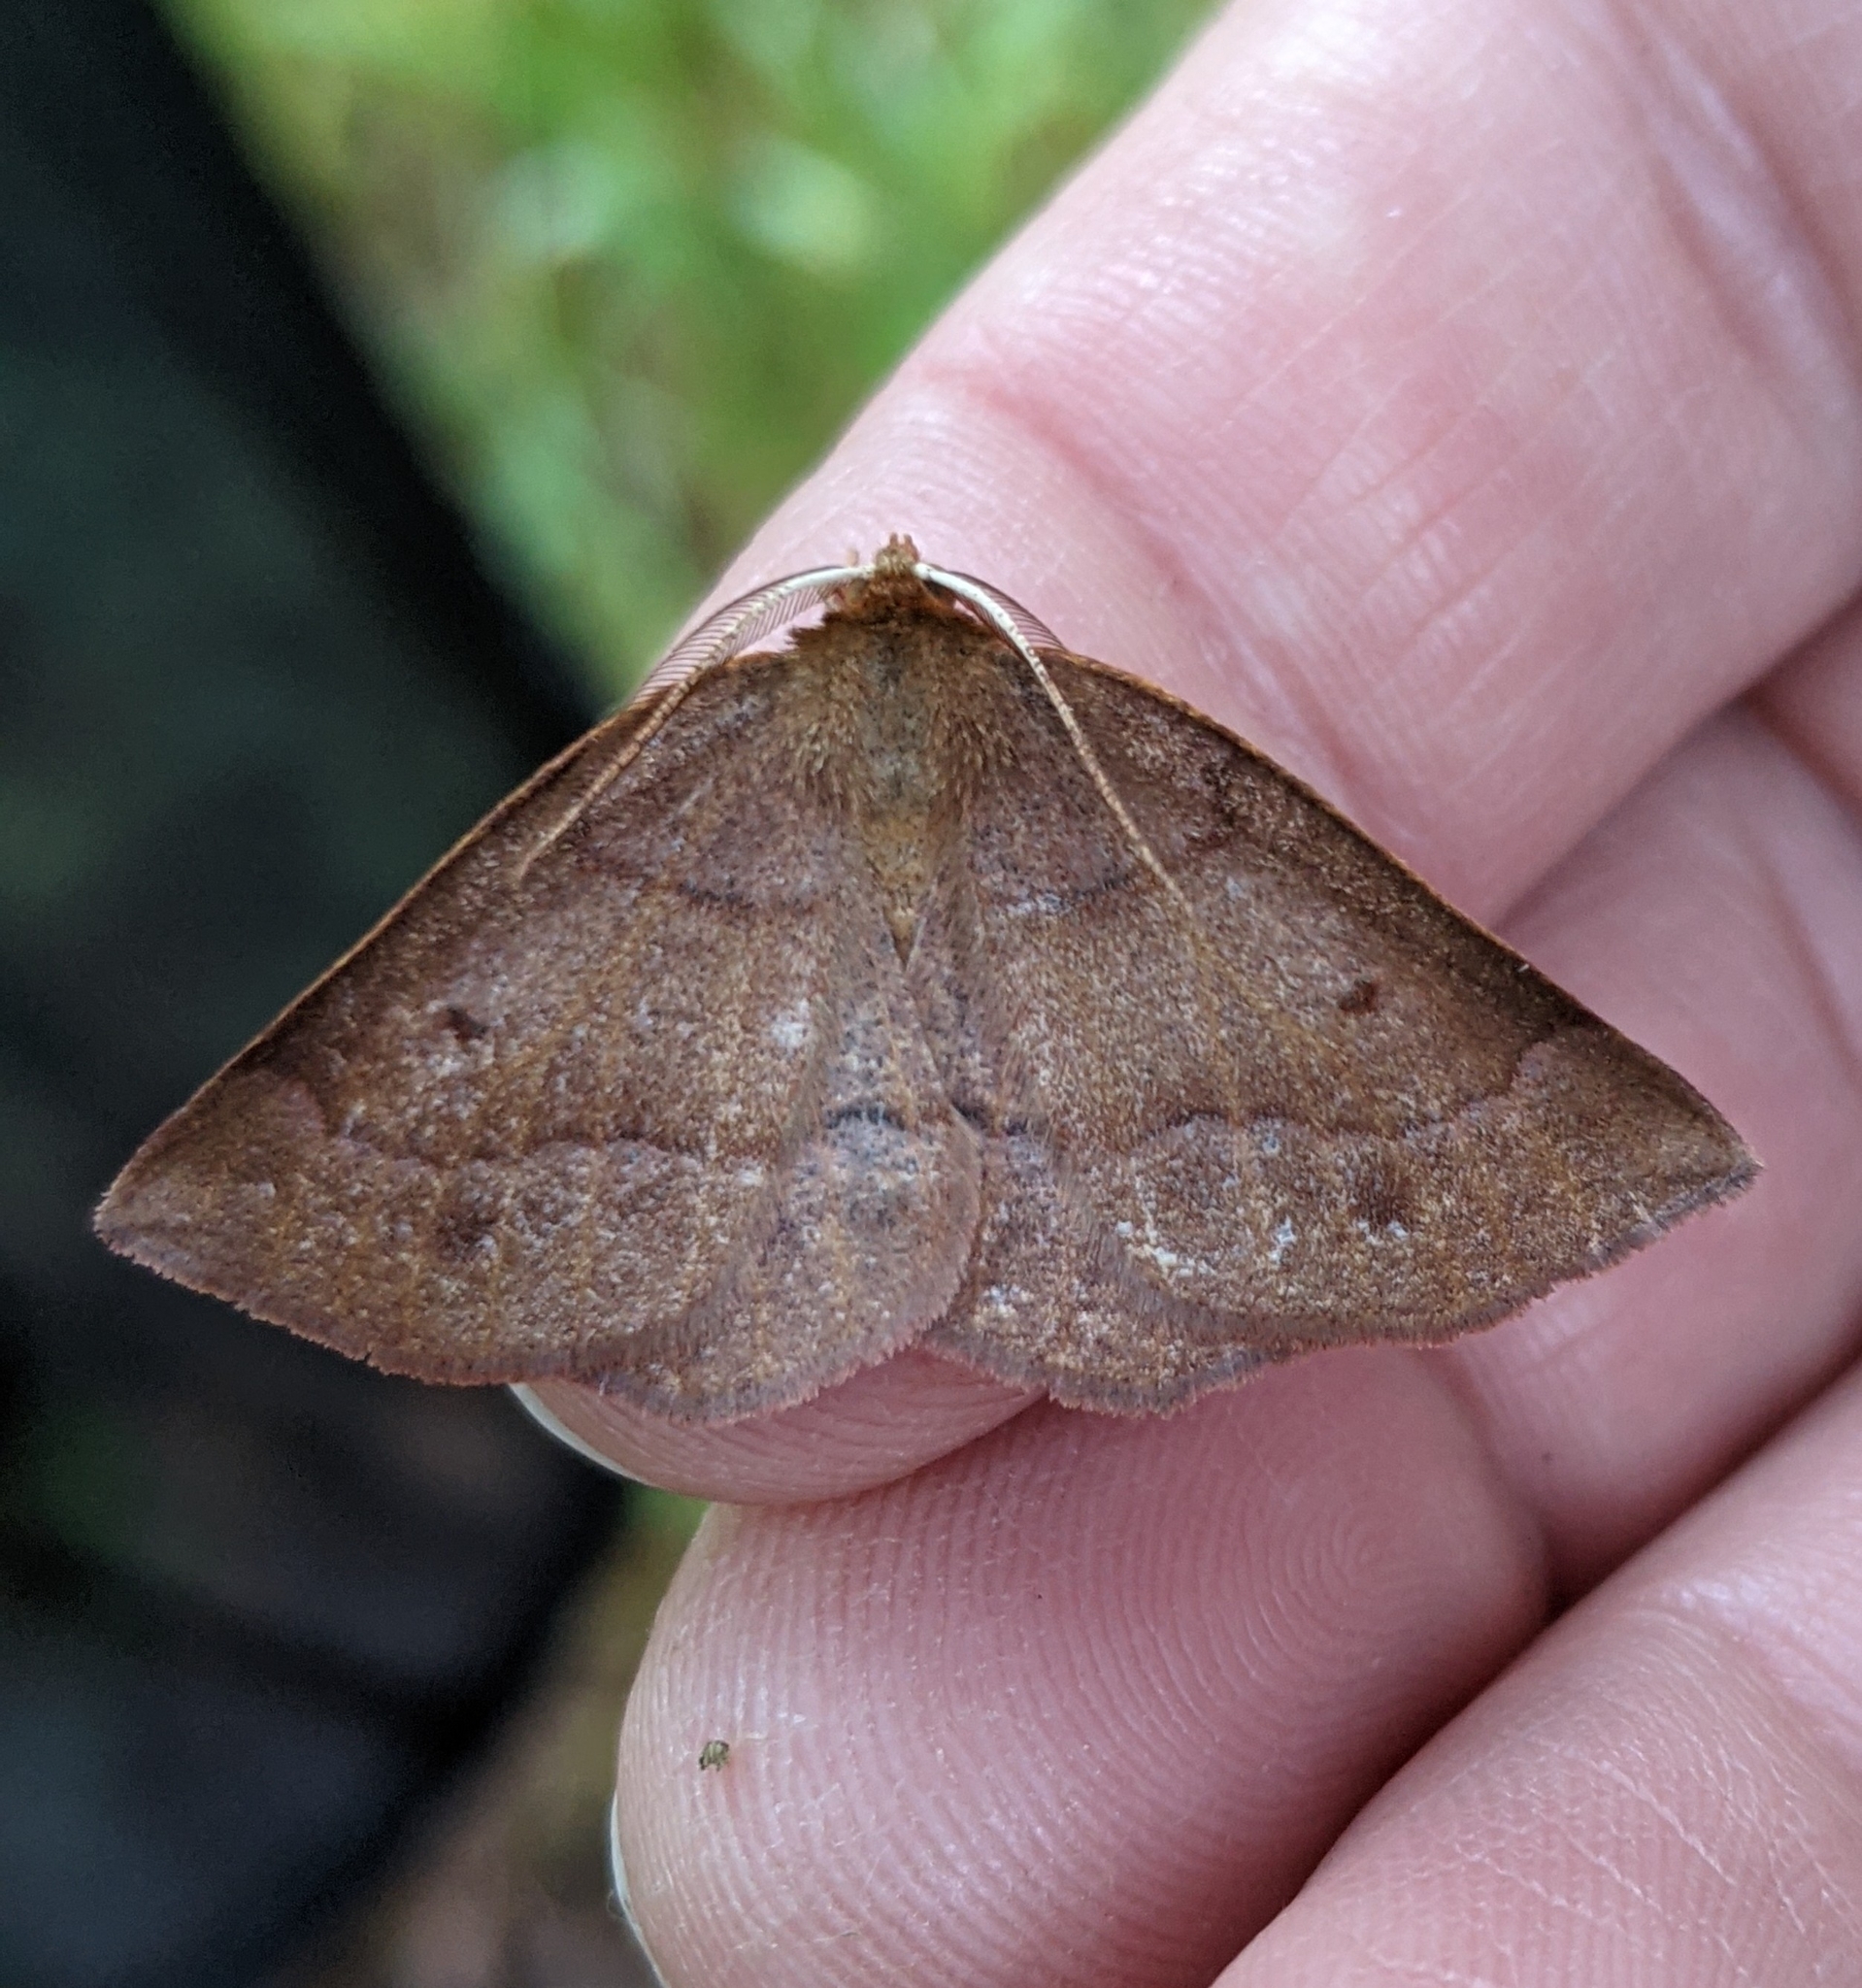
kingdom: Animalia
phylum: Arthropoda
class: Insecta
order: Lepidoptera
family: Geometridae
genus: Metarranthis
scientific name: Metarranthis duaria
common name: Ruddy metarranthis moth
